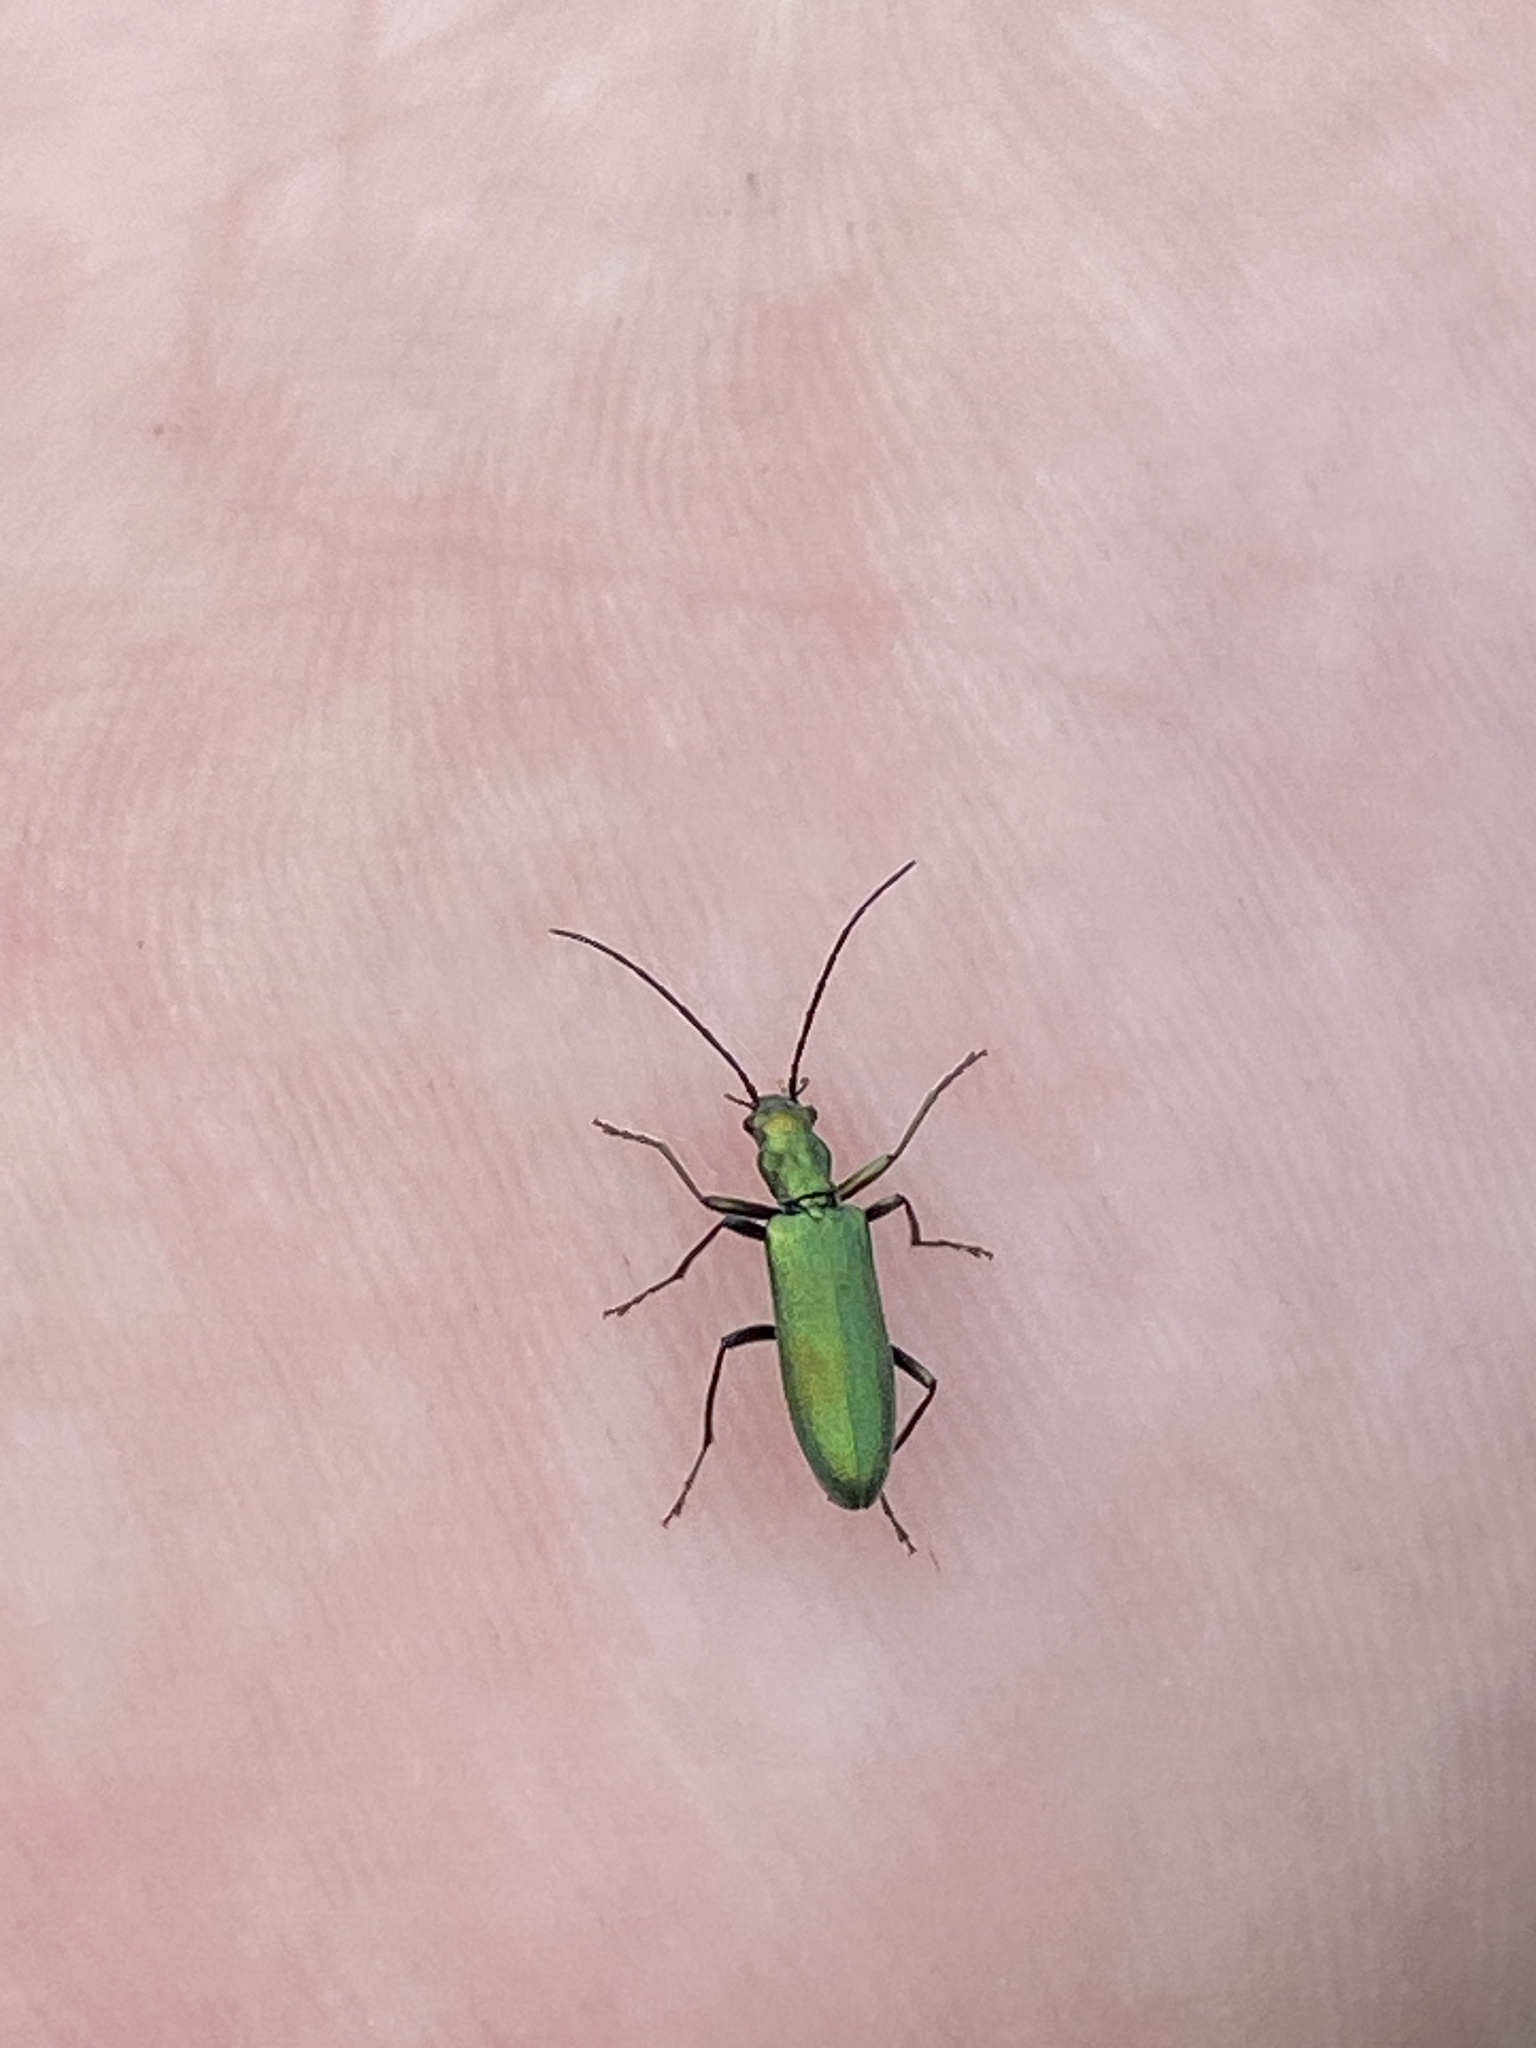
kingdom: Animalia
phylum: Arthropoda
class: Insecta
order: Coleoptera
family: Oedemeridae
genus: Chrysanthia
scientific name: Chrysanthia viridissima
